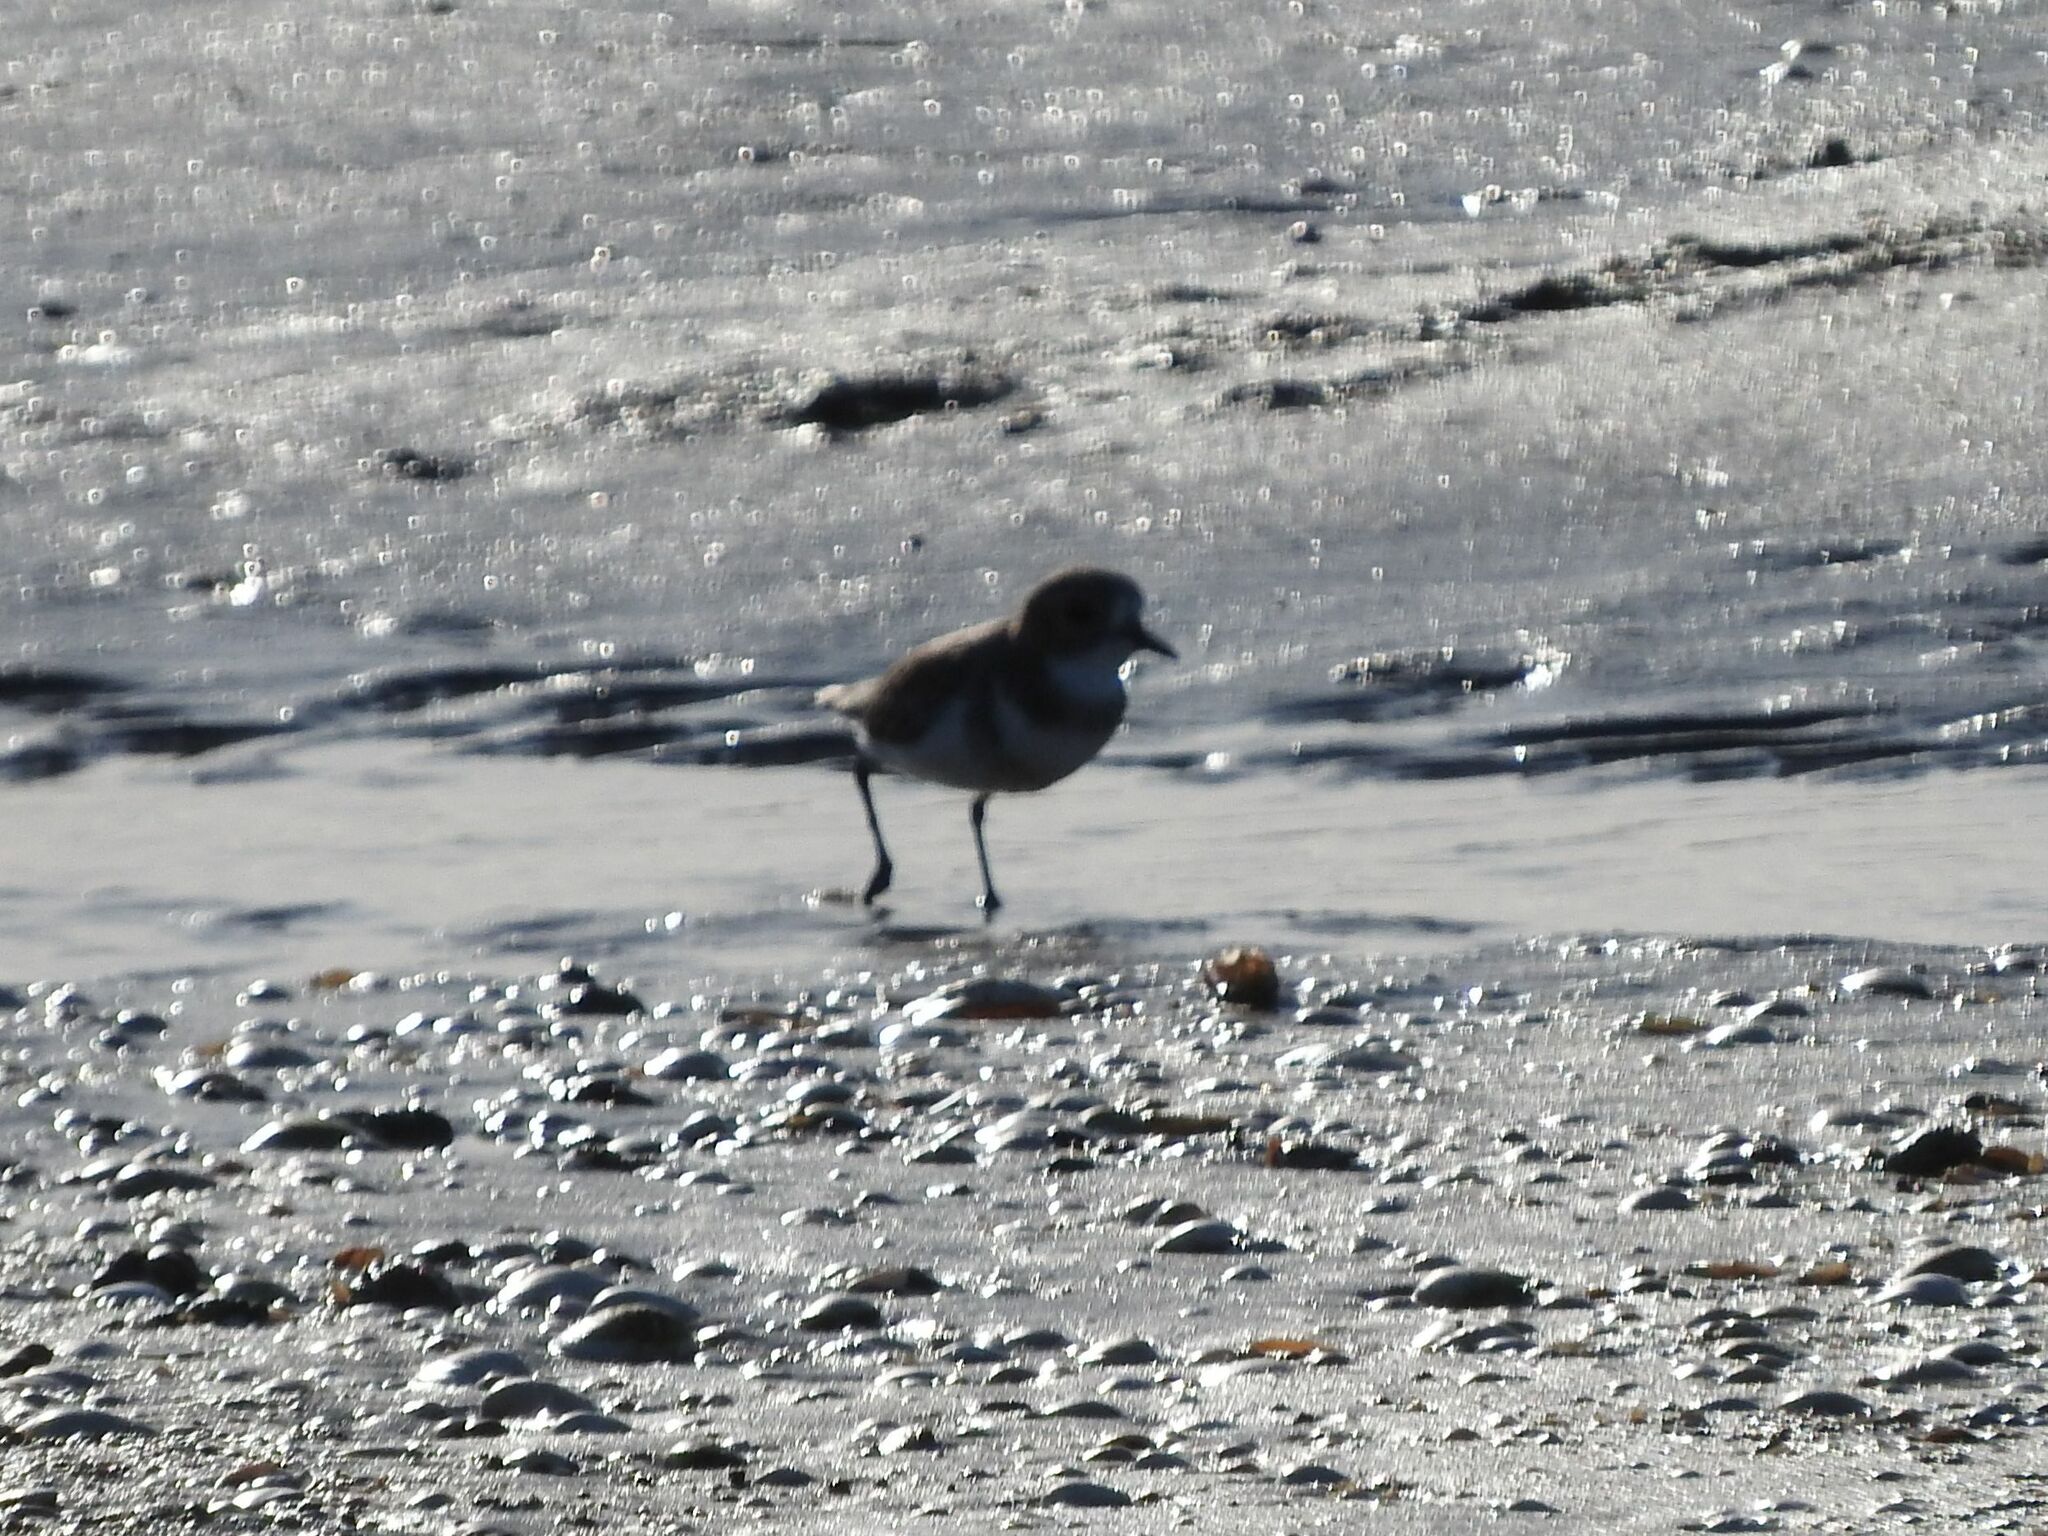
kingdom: Animalia
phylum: Chordata
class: Aves
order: Charadriiformes
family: Charadriidae
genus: Anarhynchus
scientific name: Anarhynchus
